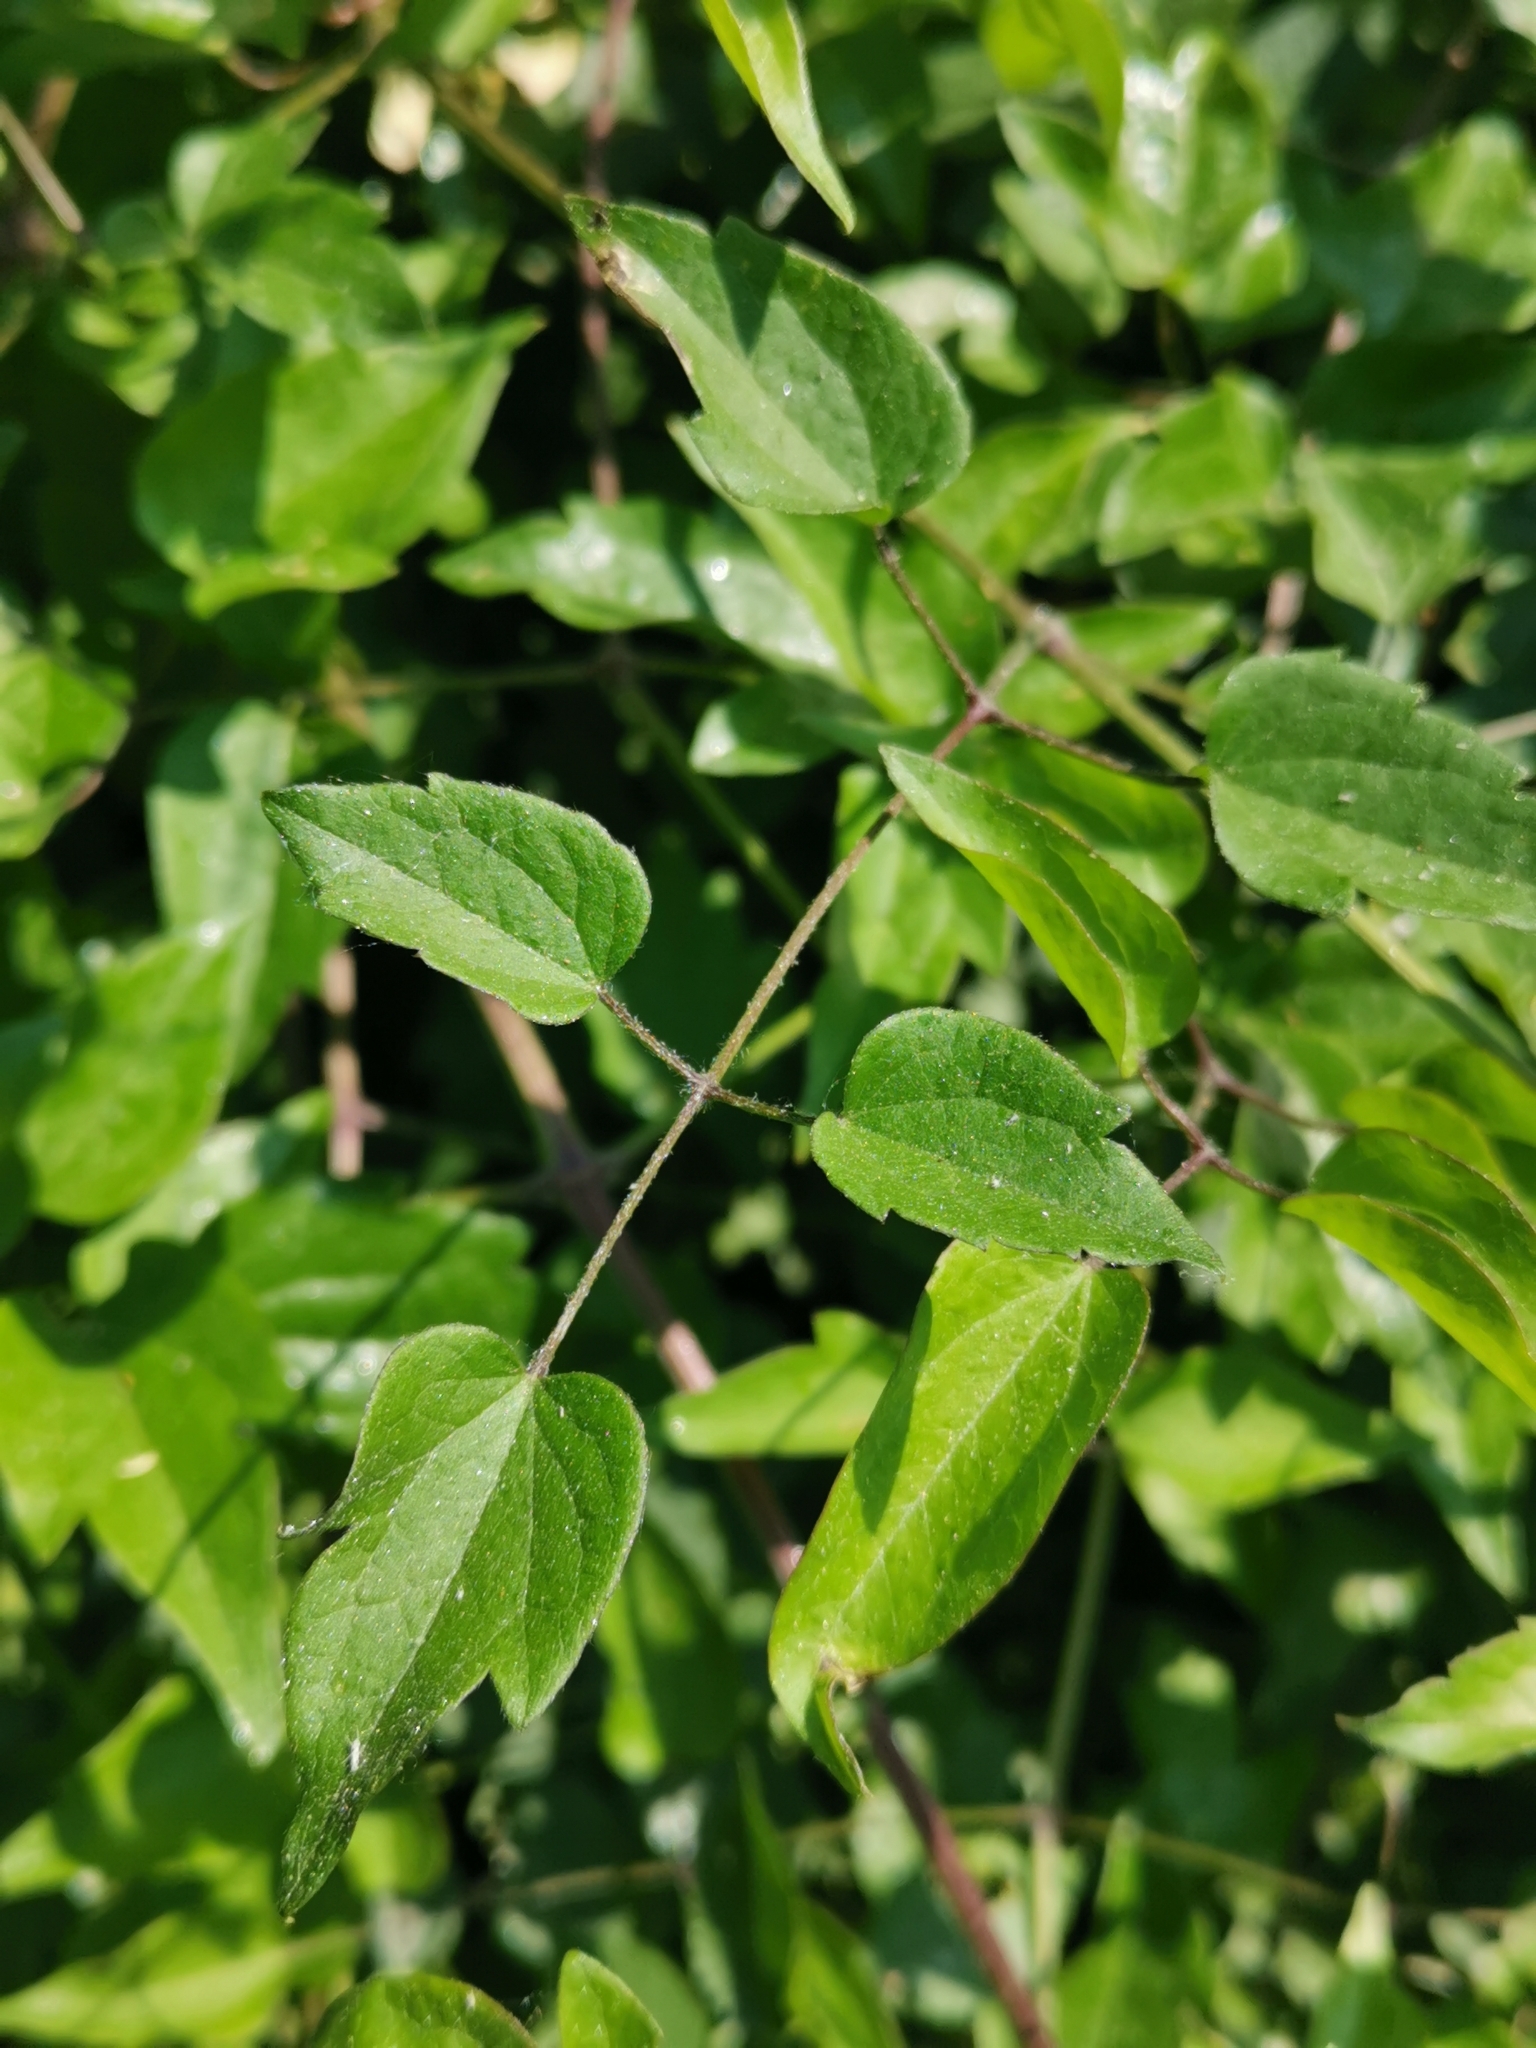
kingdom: Plantae
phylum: Tracheophyta
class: Magnoliopsida
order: Ranunculales
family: Ranunculaceae
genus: Clematis
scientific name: Clematis vitalba
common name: Evergreen clematis
